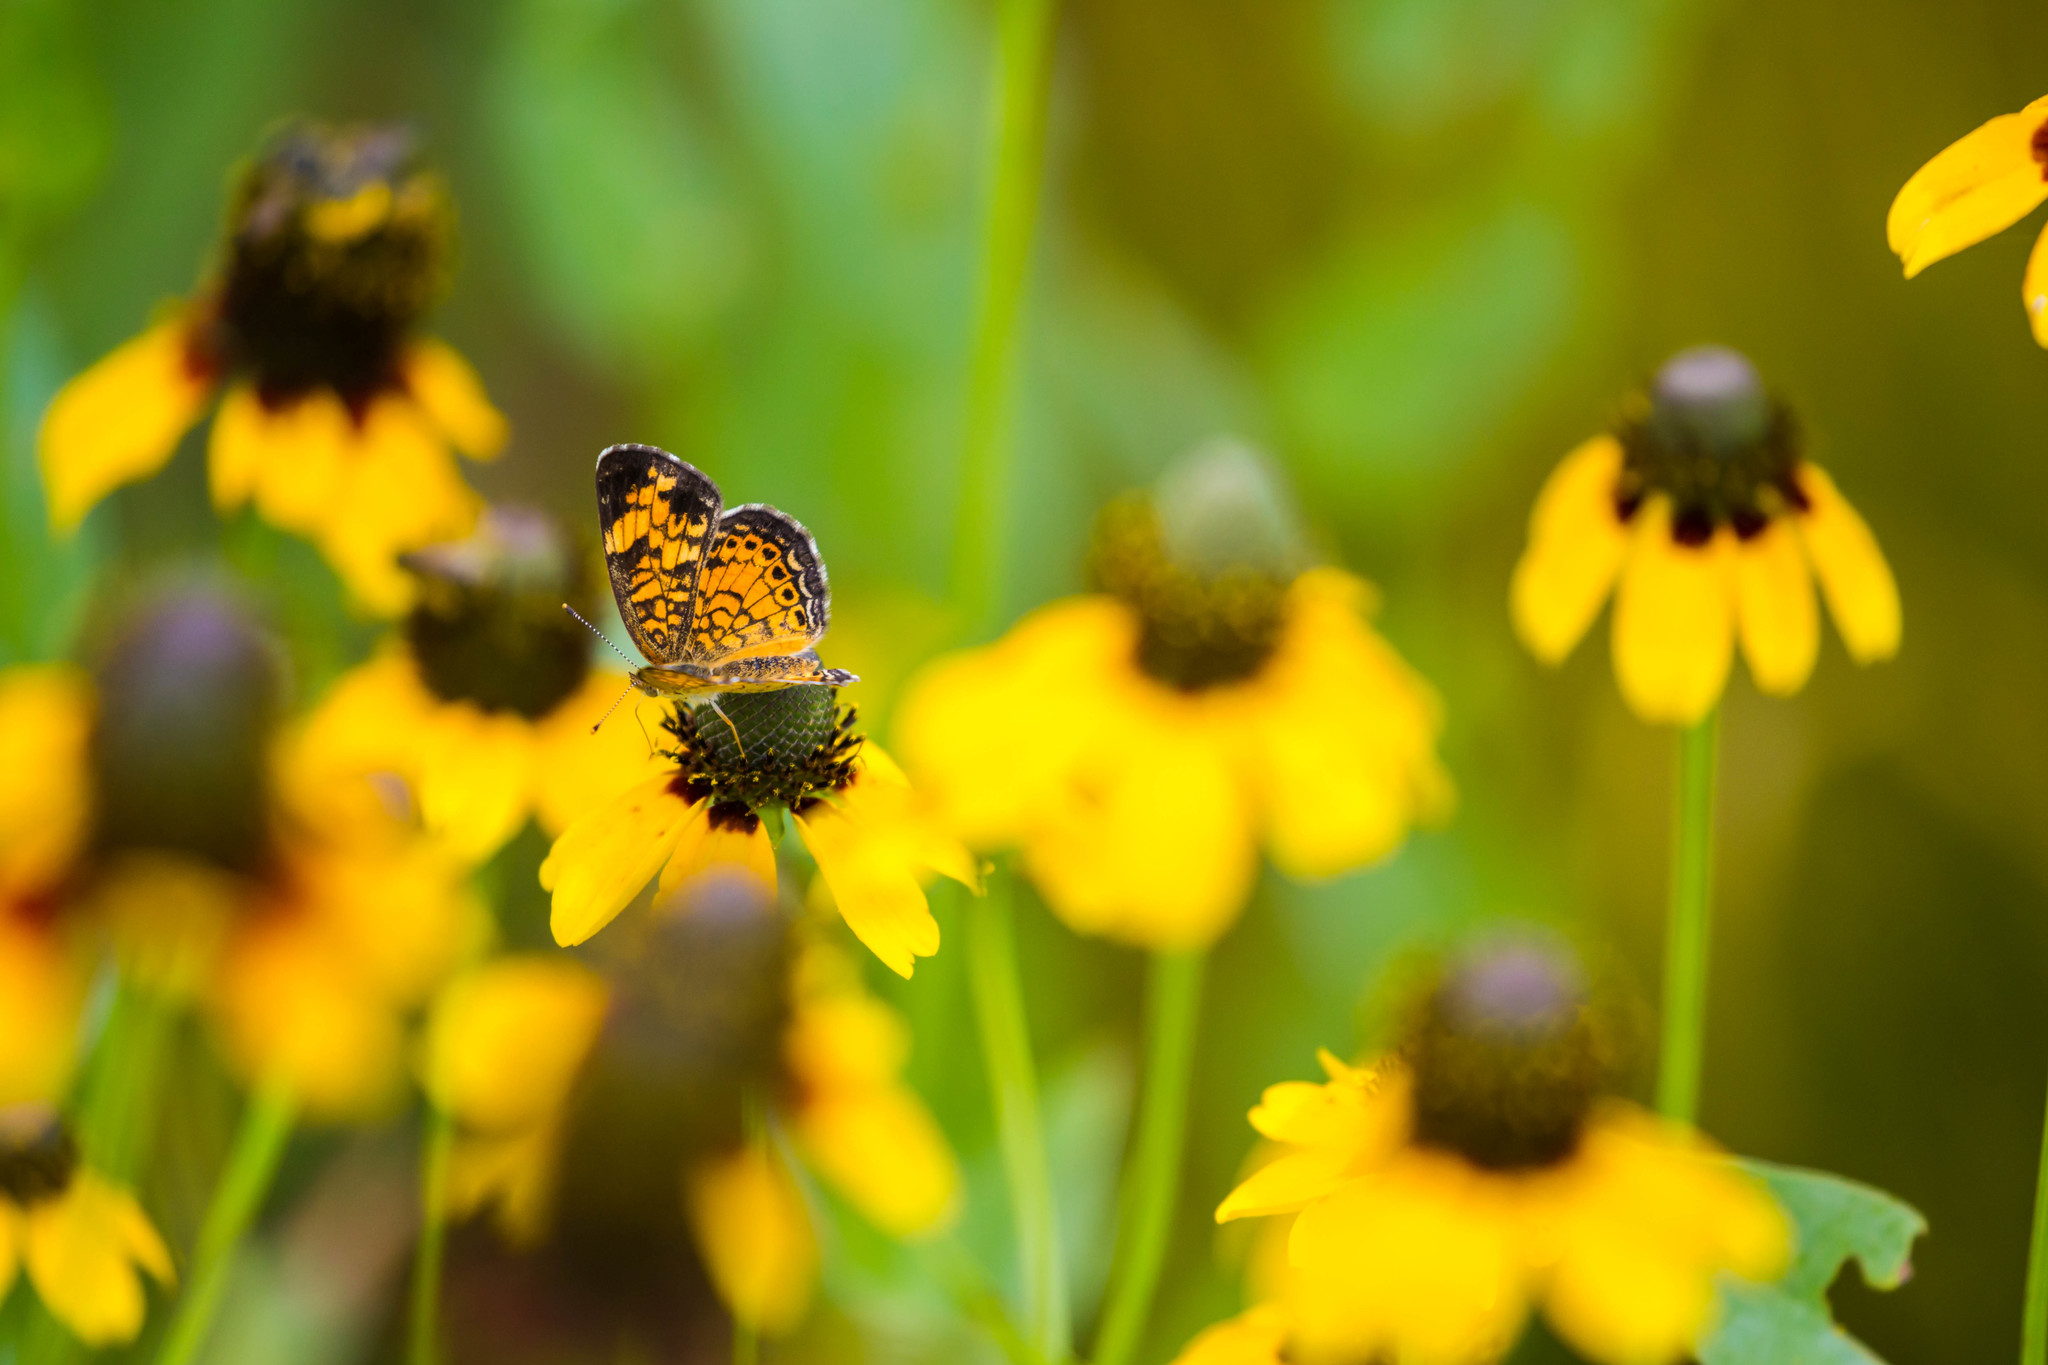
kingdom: Animalia
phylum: Arthropoda
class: Insecta
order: Lepidoptera
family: Nymphalidae
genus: Phyciodes
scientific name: Phyciodes tharos
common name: Pearl crescent
